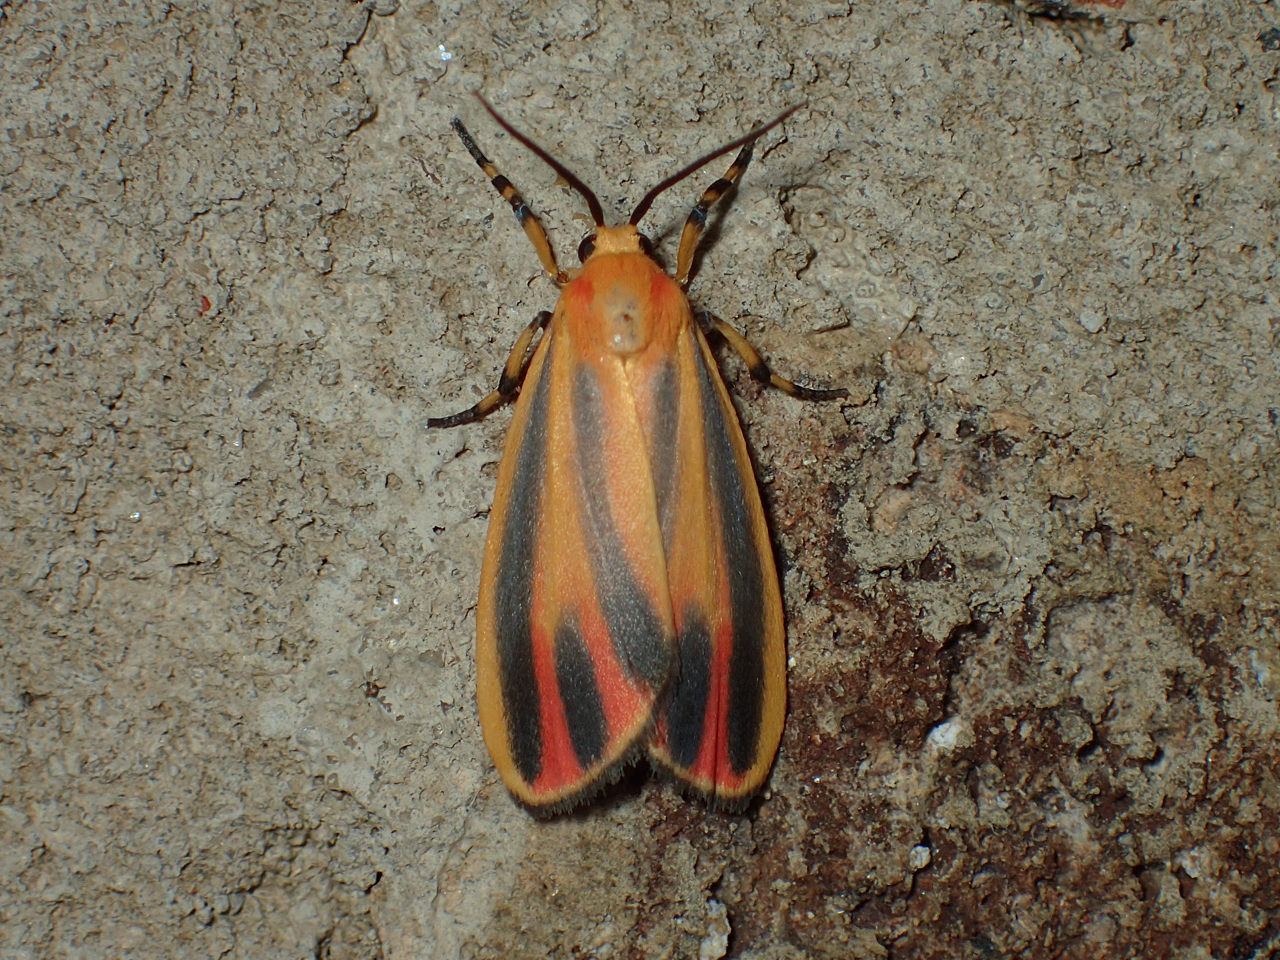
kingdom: Animalia
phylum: Arthropoda
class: Insecta
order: Lepidoptera
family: Erebidae
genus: Hypoprepia
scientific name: Hypoprepia fucosa
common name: Painted lichen moth
